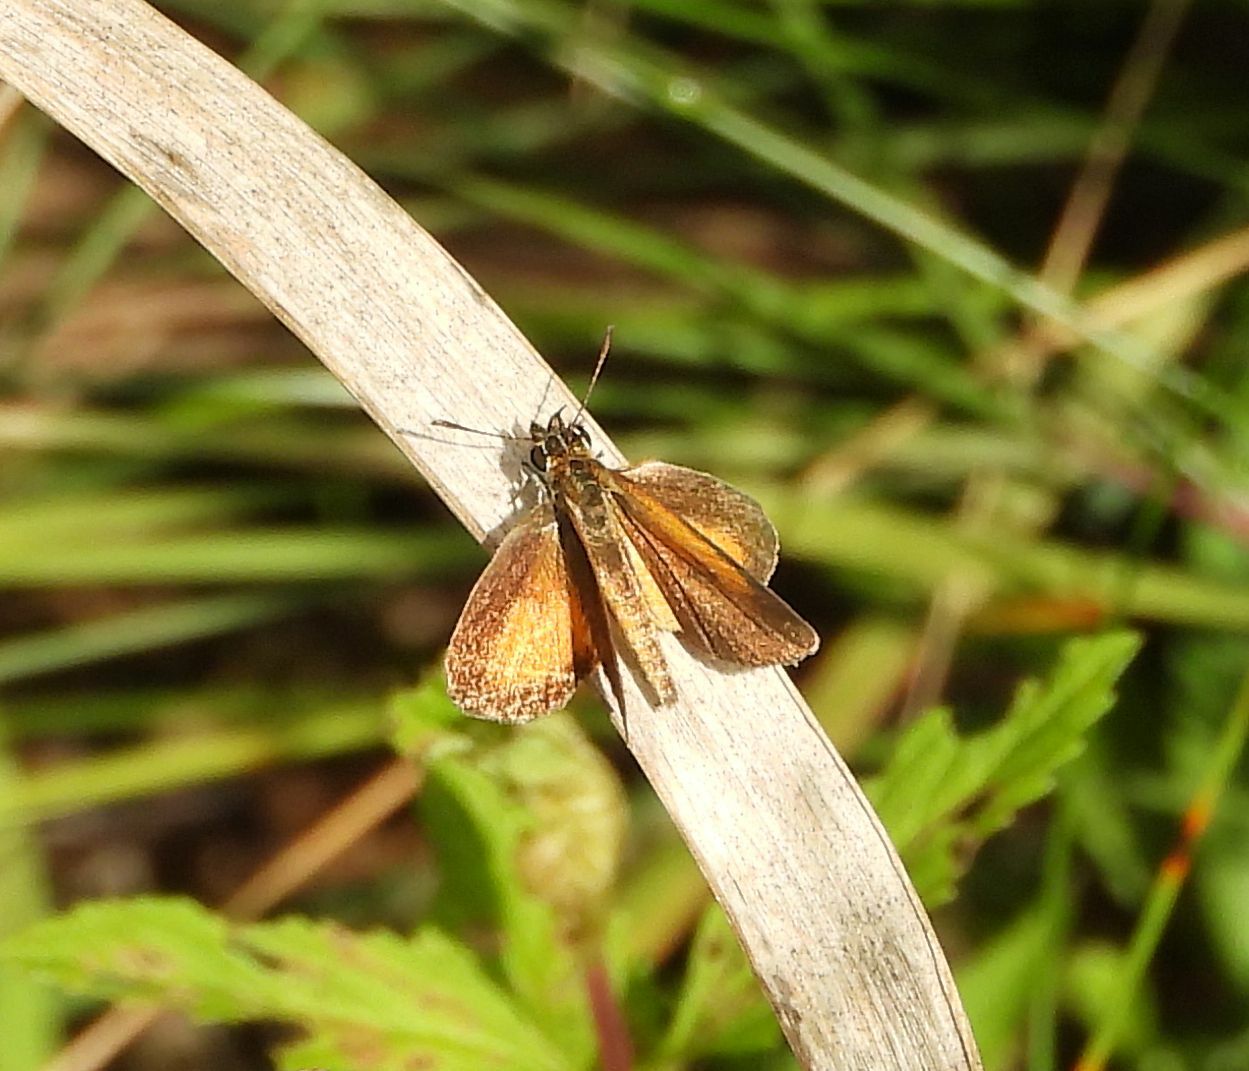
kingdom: Animalia
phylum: Arthropoda
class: Insecta
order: Lepidoptera
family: Hesperiidae
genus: Ancyloxypha
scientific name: Ancyloxypha numitor
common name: Least skipper
